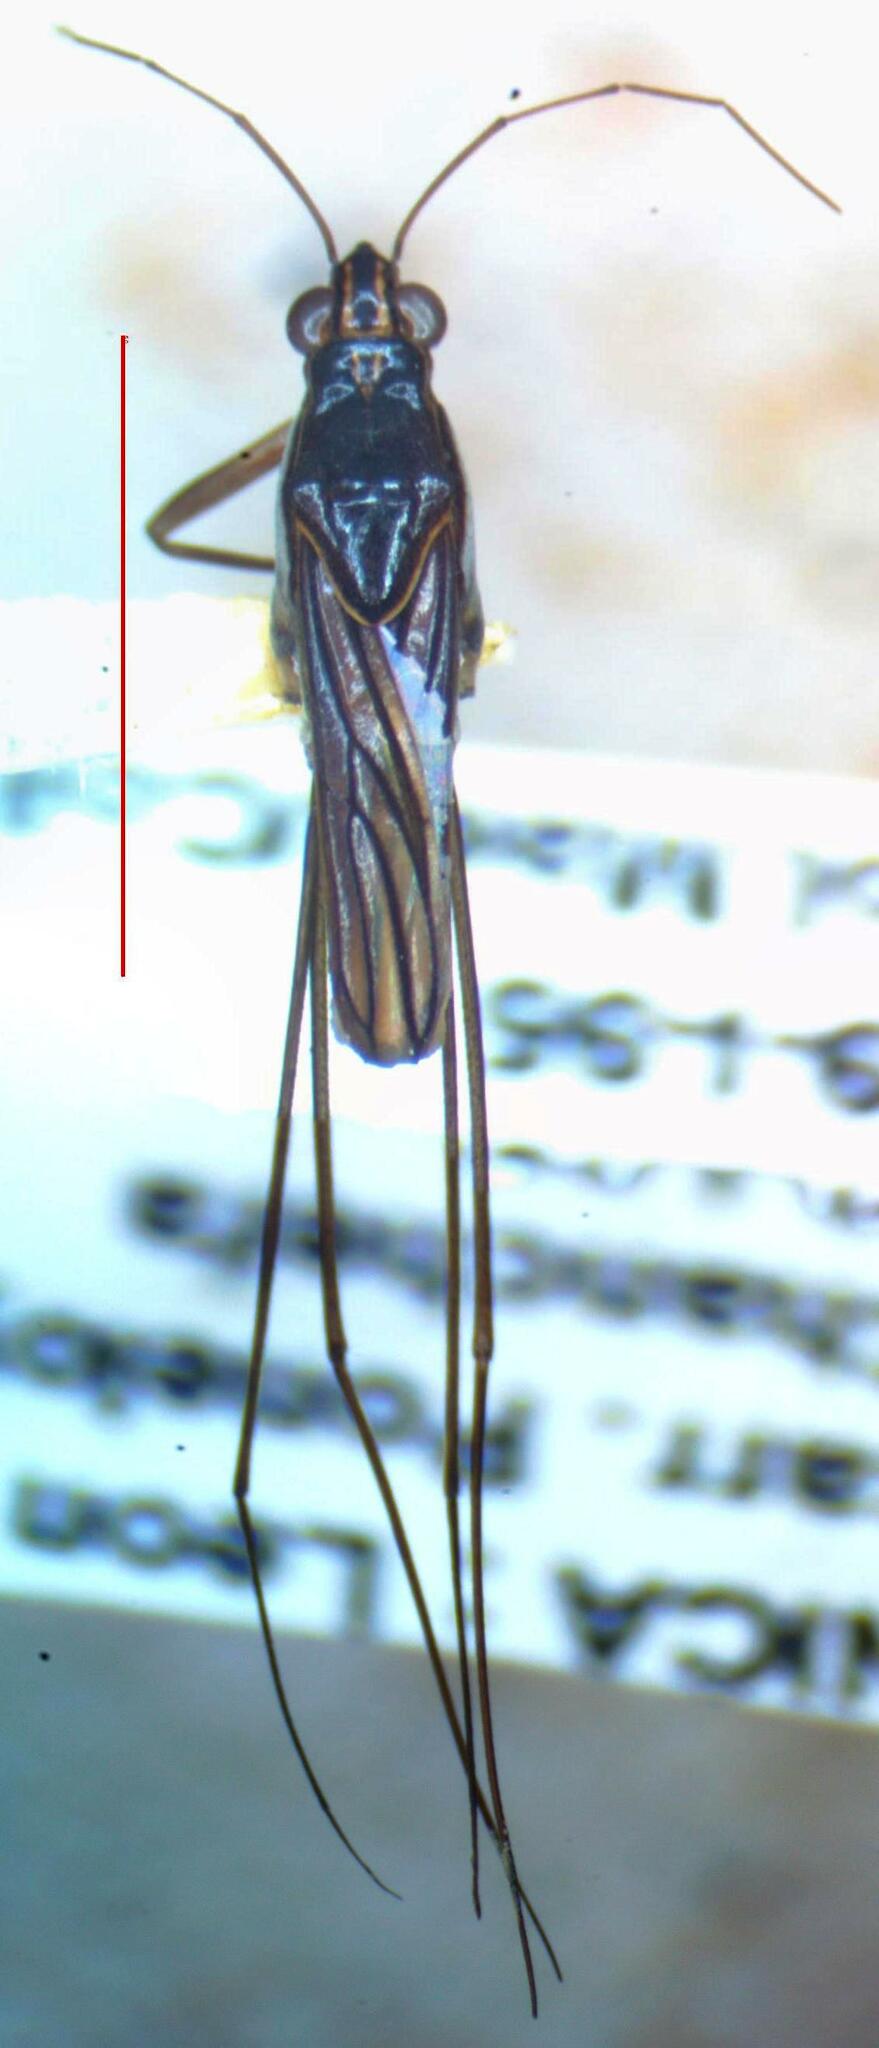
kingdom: Animalia
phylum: Arthropoda
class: Insecta
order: Hemiptera
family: Gerridae
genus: Limnogonus
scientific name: Limnogonus
